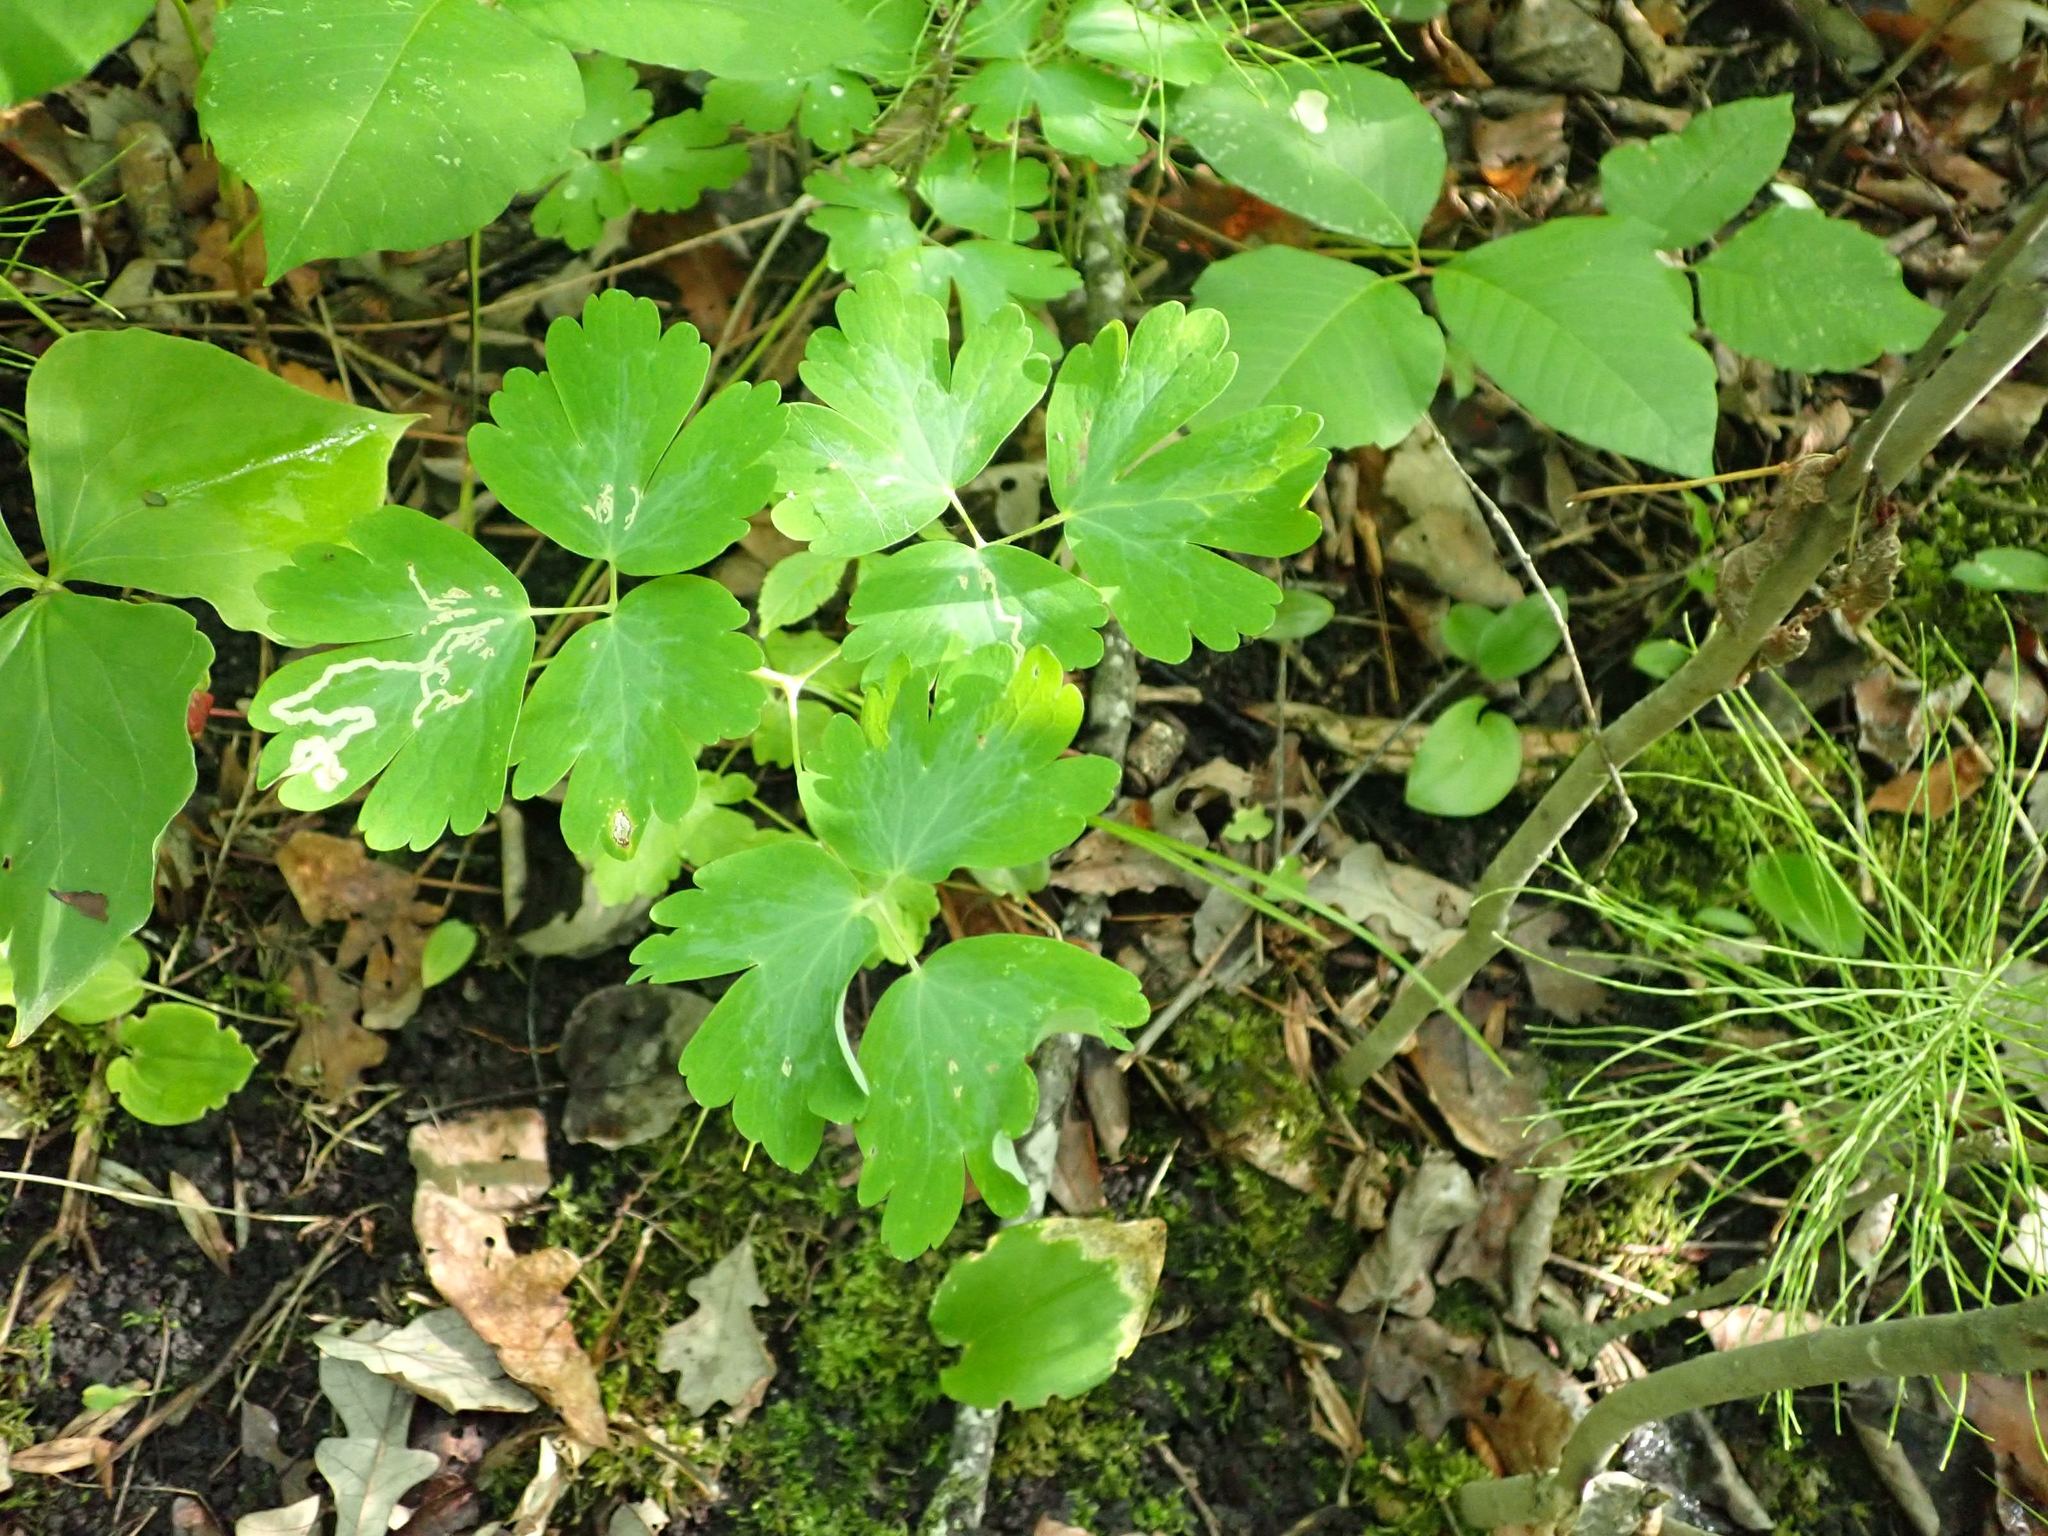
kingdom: Plantae
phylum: Tracheophyta
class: Magnoliopsida
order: Ranunculales
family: Ranunculaceae
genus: Aquilegia
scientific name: Aquilegia canadensis
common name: American columbine
